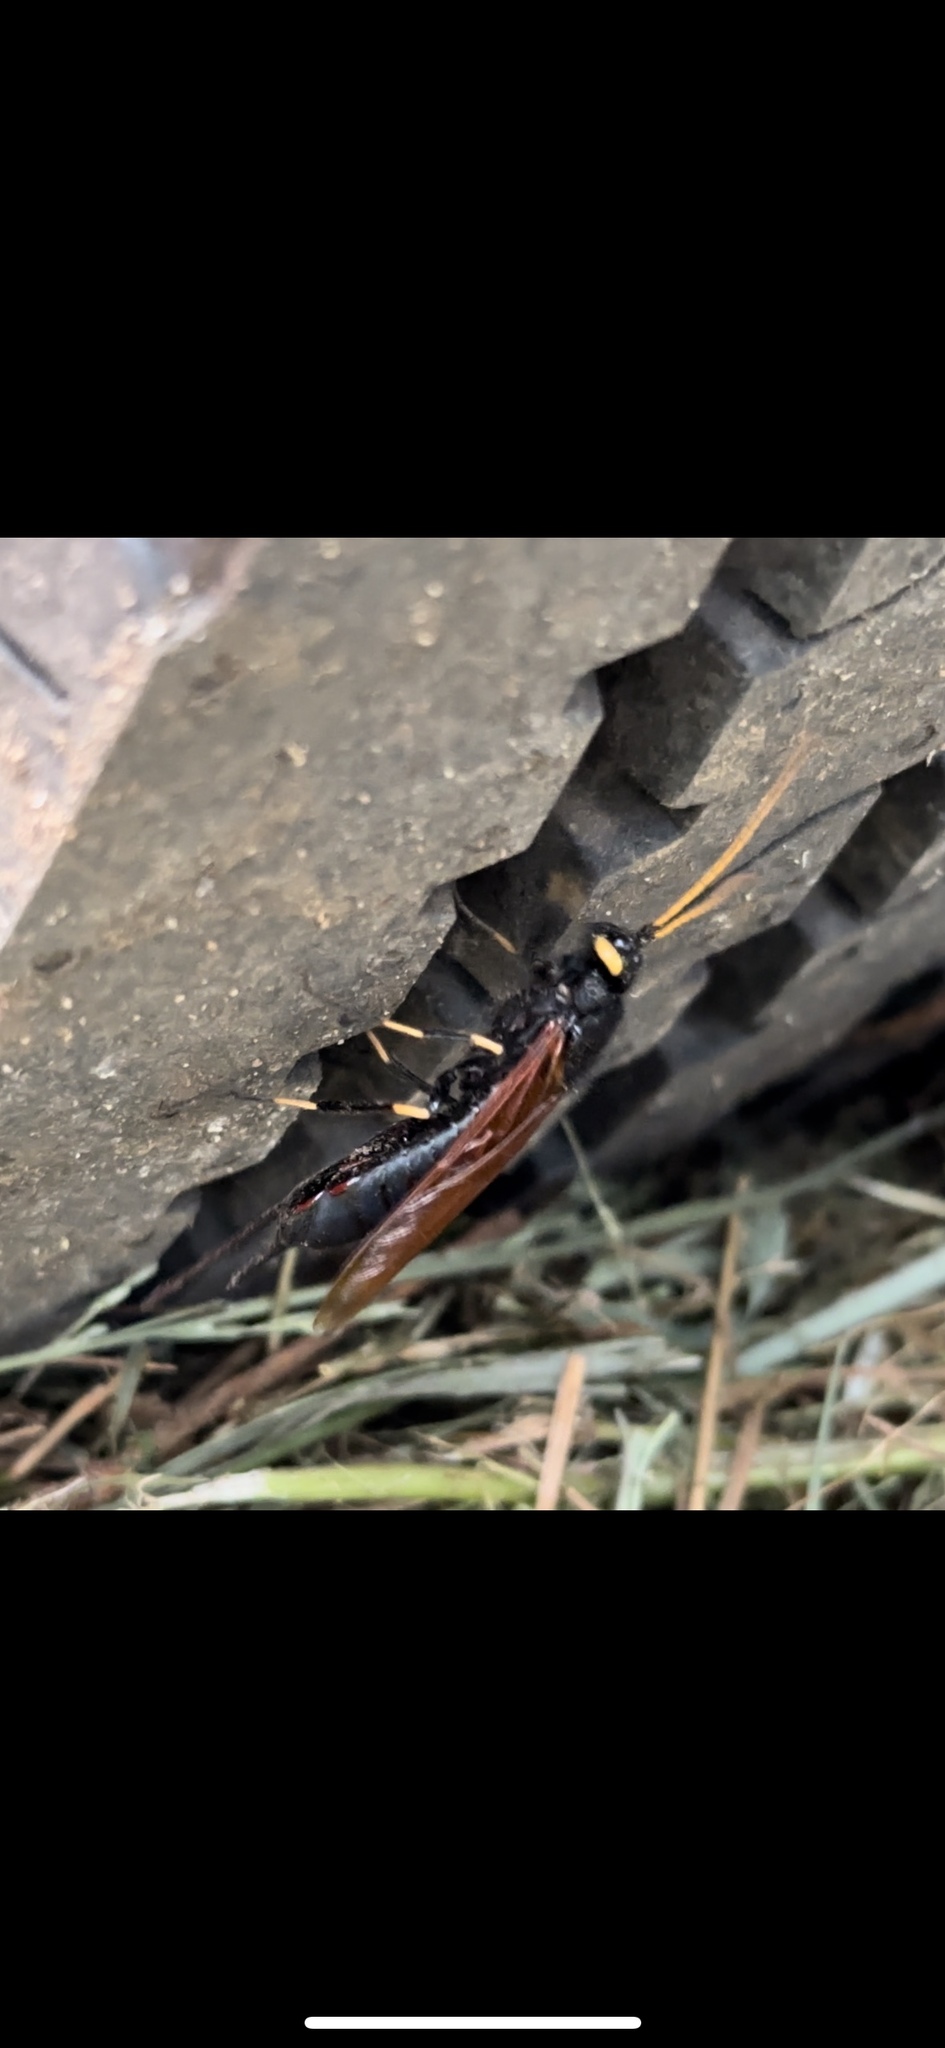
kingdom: Animalia
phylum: Arthropoda
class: Insecta
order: Hymenoptera
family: Siricidae
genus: Urocerus
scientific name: Urocerus californicus
